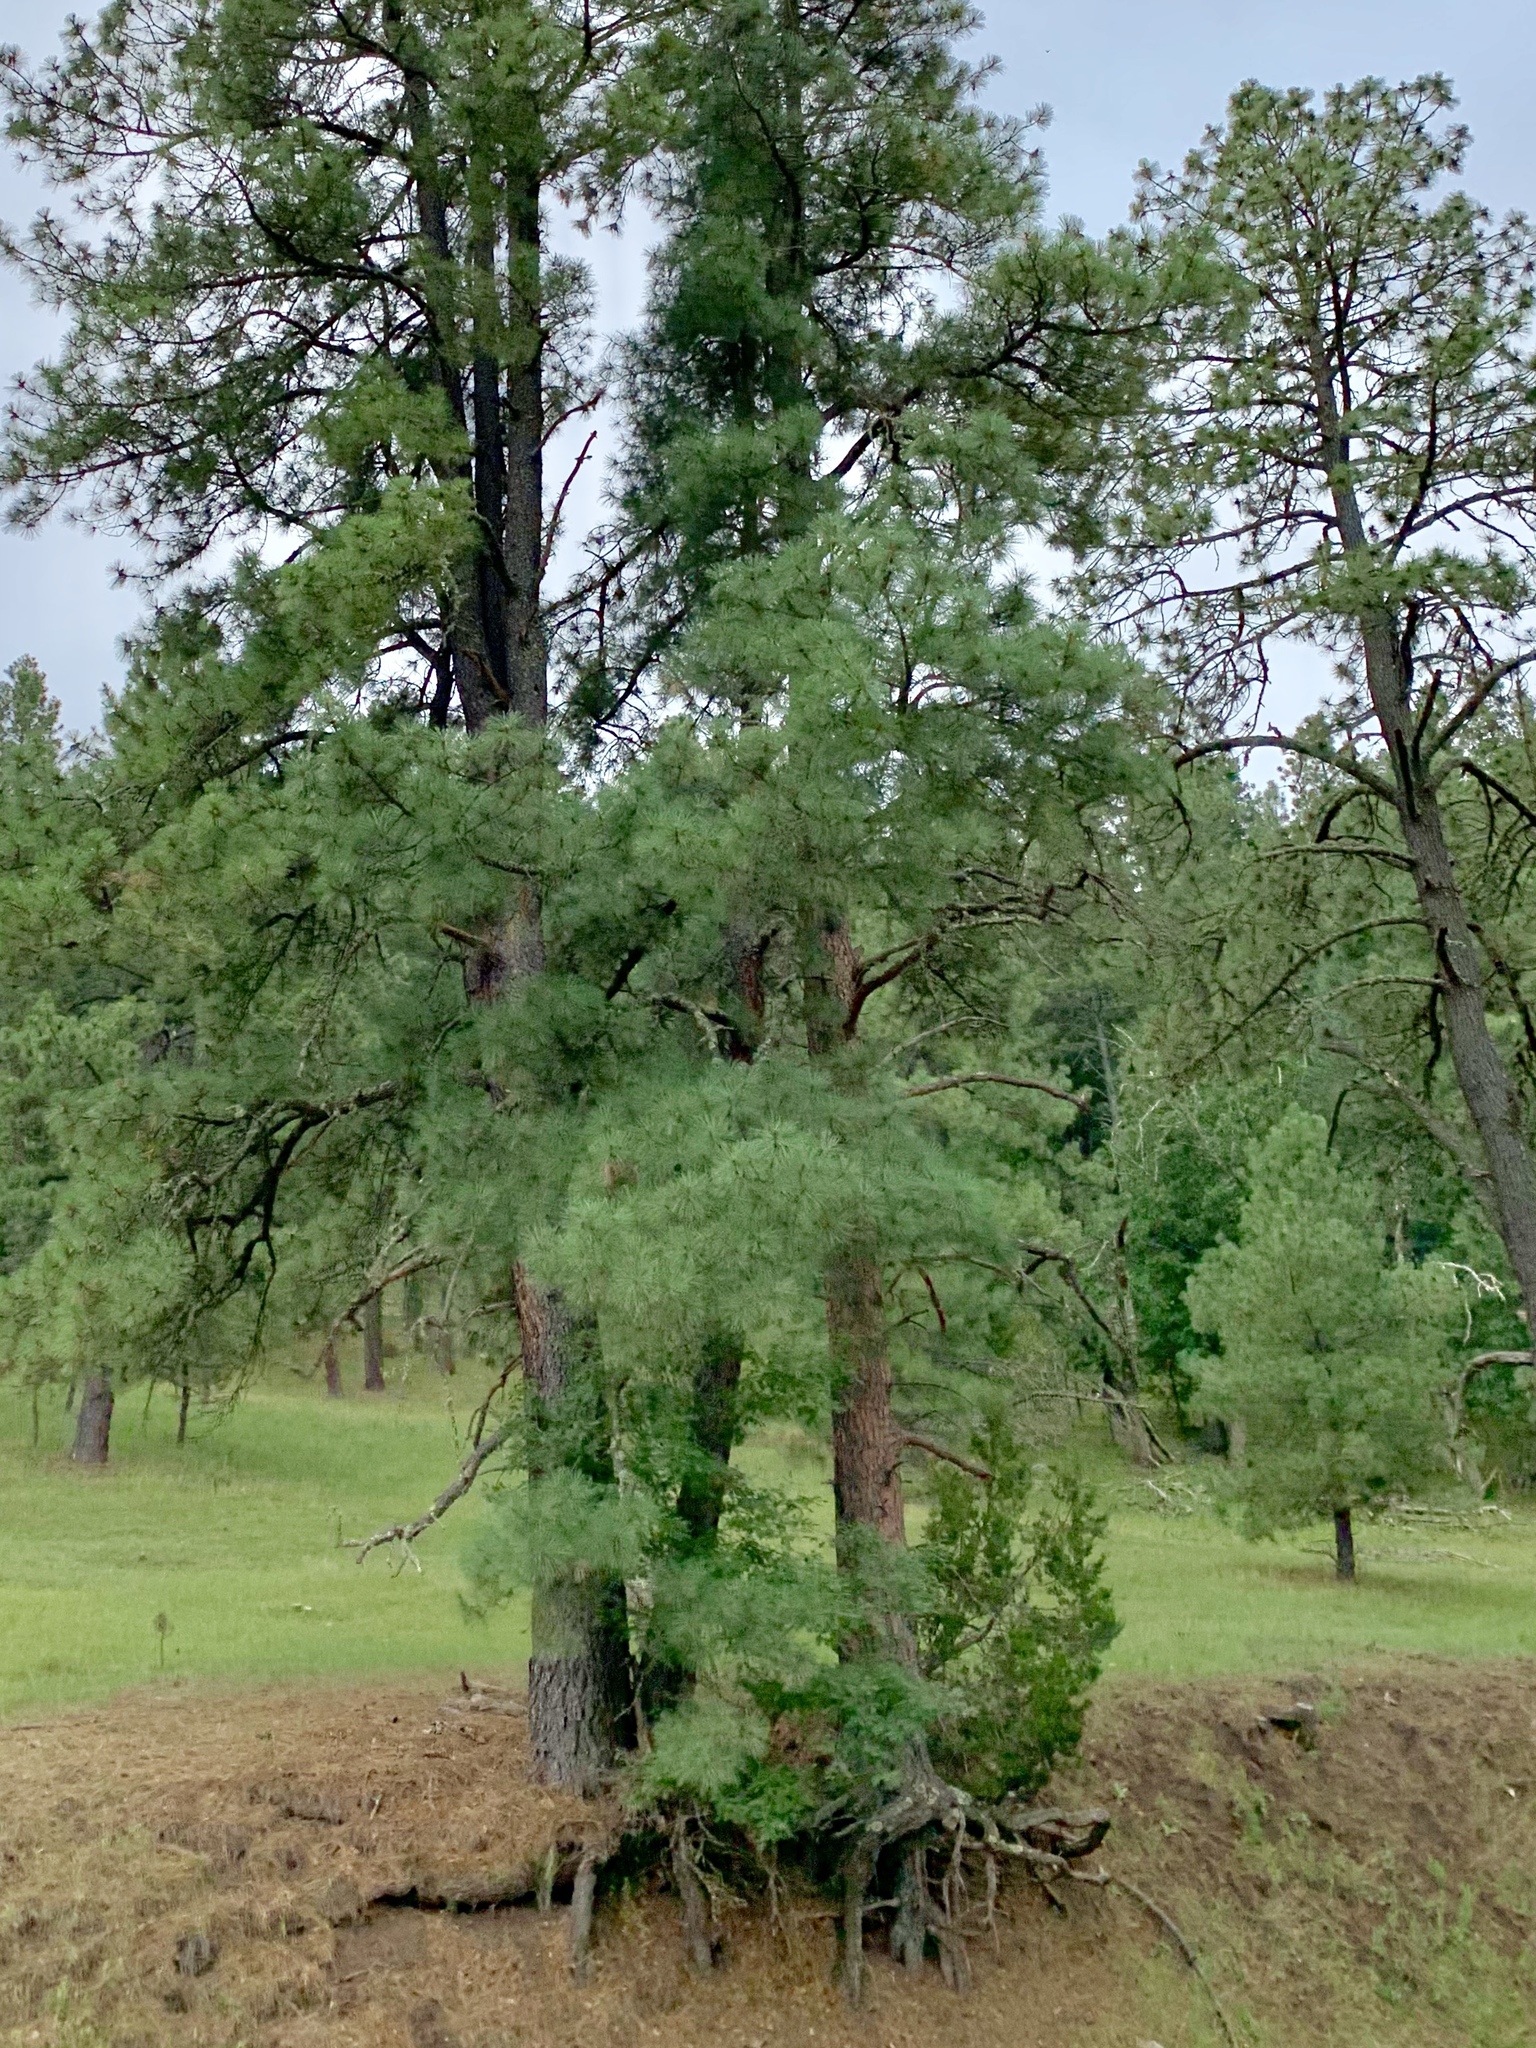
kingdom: Plantae
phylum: Tracheophyta
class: Pinopsida
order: Pinales
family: Pinaceae
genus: Pinus
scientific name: Pinus ponderosa
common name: Western yellow-pine
